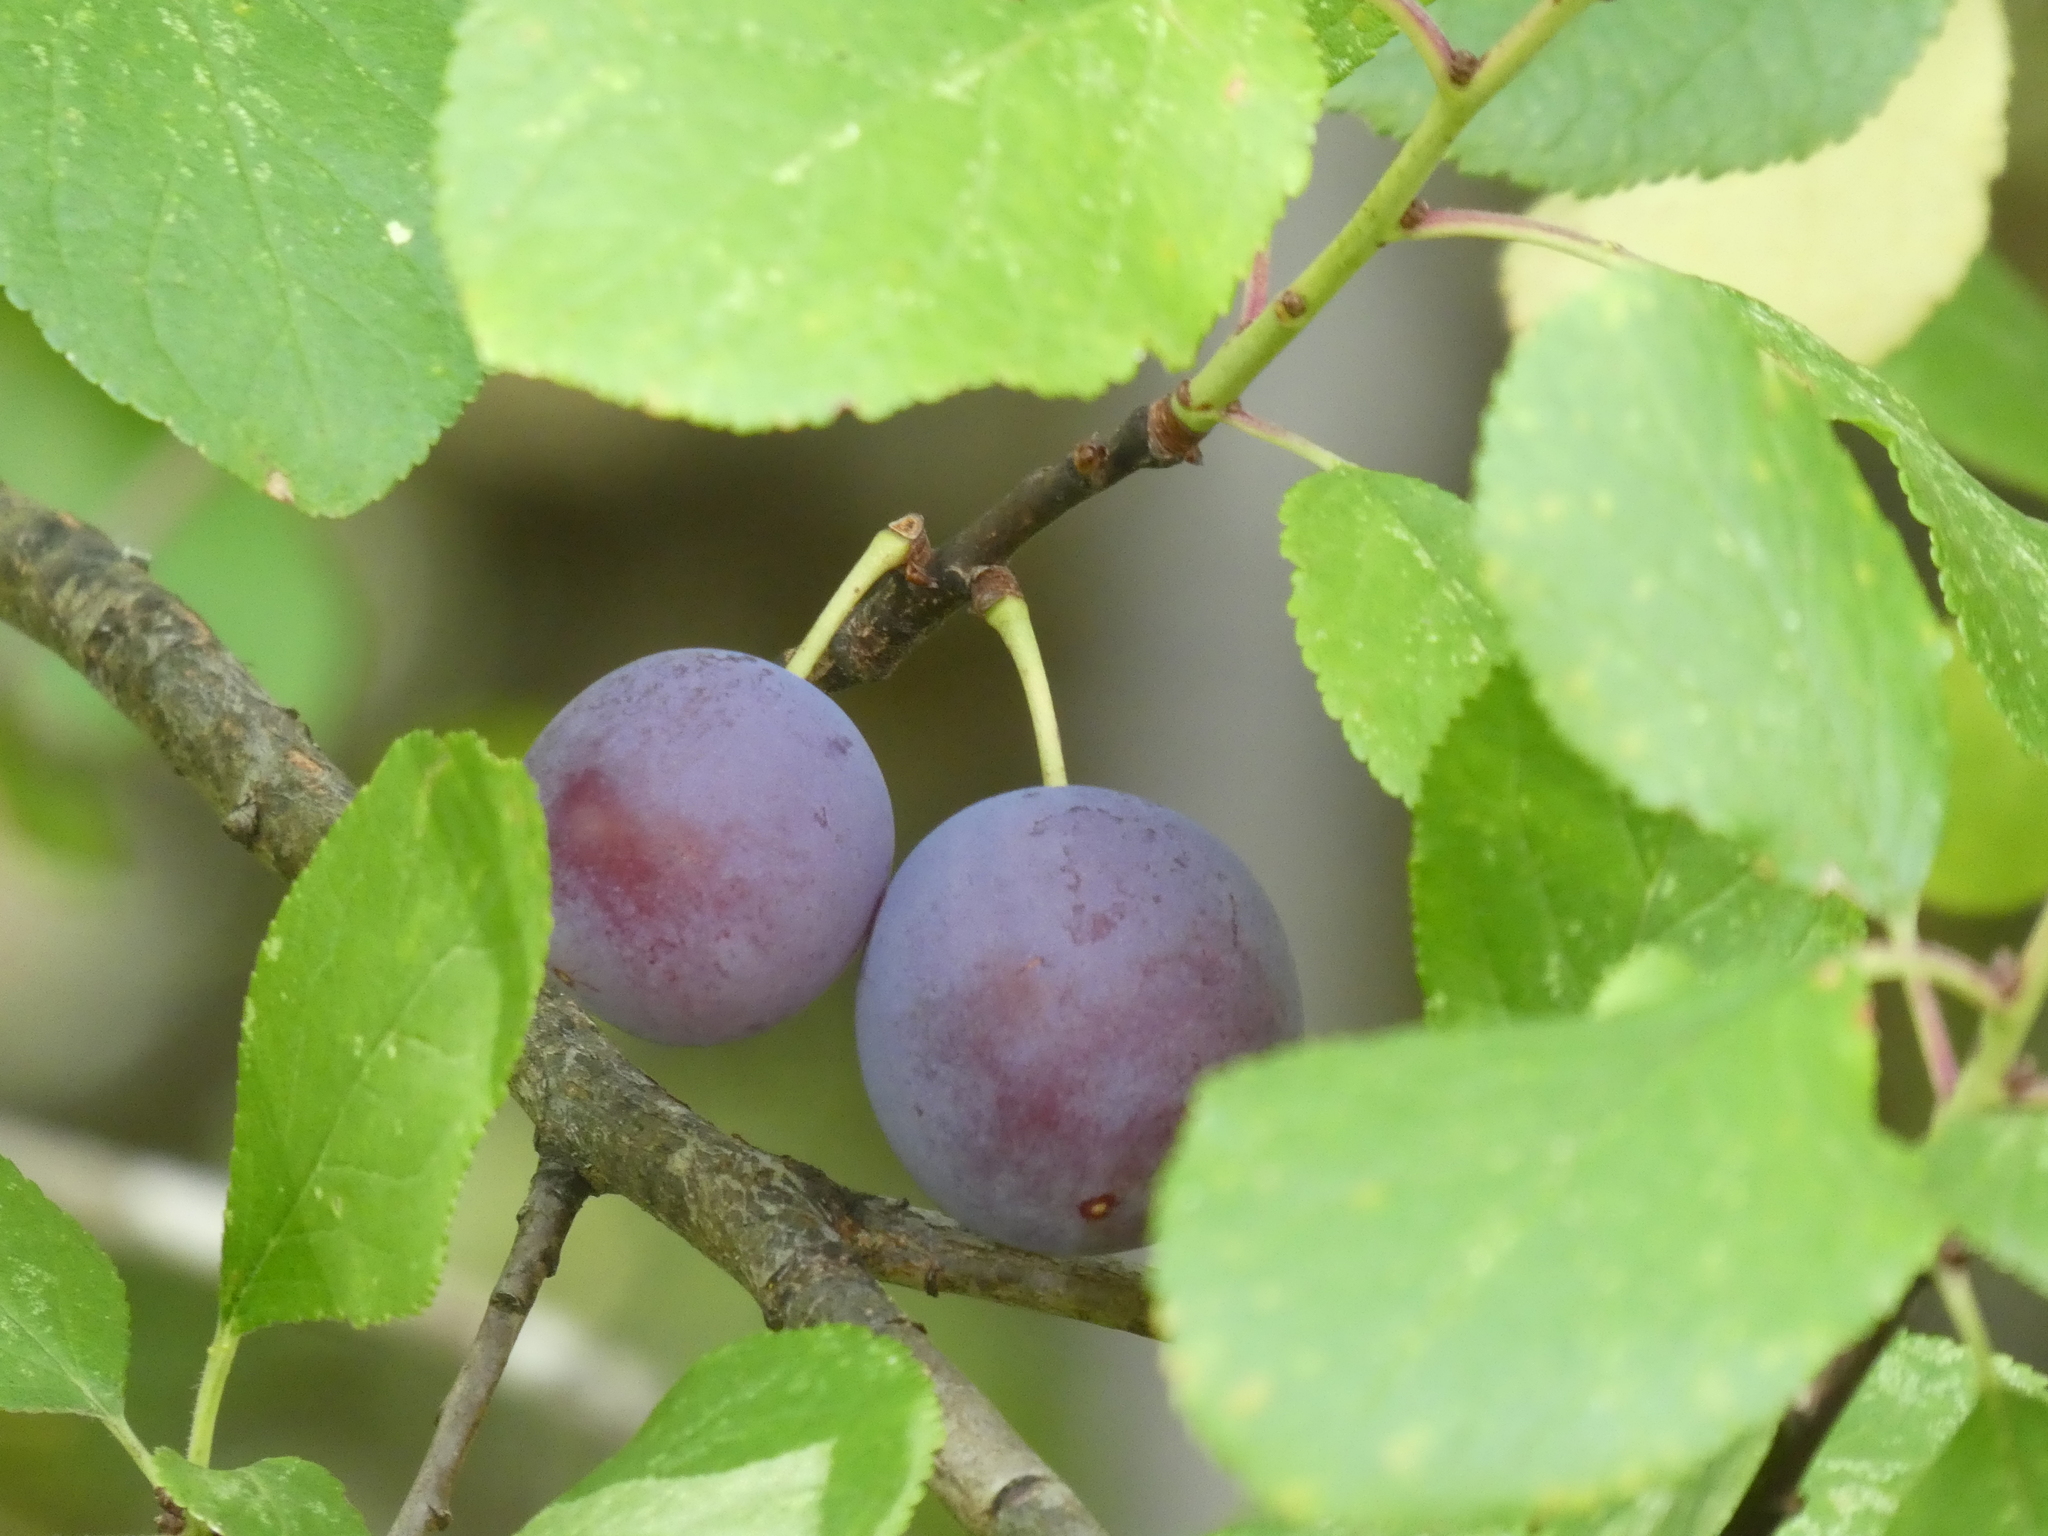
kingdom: Plantae
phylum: Tracheophyta
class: Magnoliopsida
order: Rosales
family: Rosaceae
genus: Prunus
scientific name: Prunus domestica
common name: Wild plum
